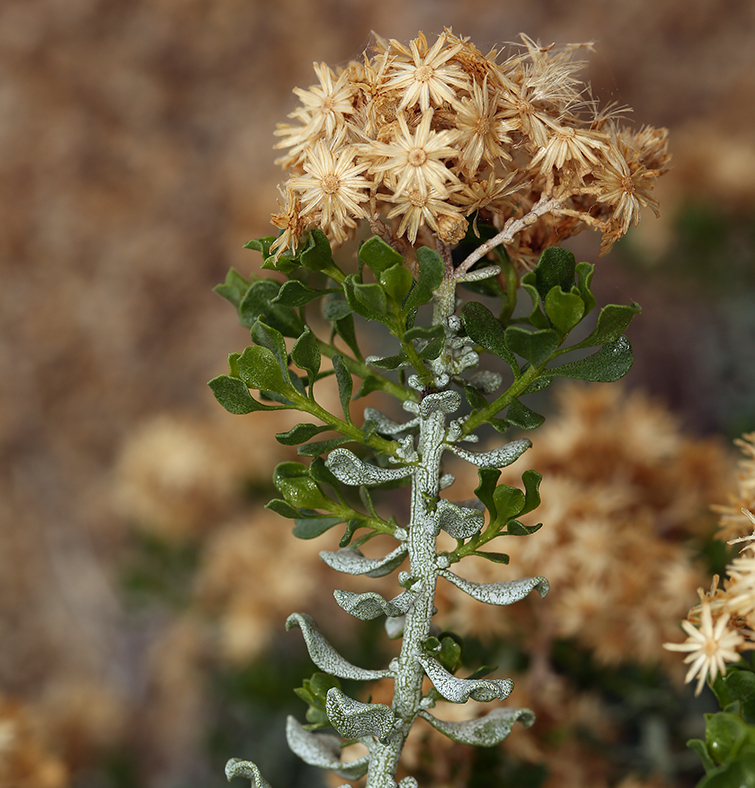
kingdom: Plantae
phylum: Tracheophyta
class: Magnoliopsida
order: Asterales
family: Asteraceae
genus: Ericameria
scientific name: Ericameria cuneata
